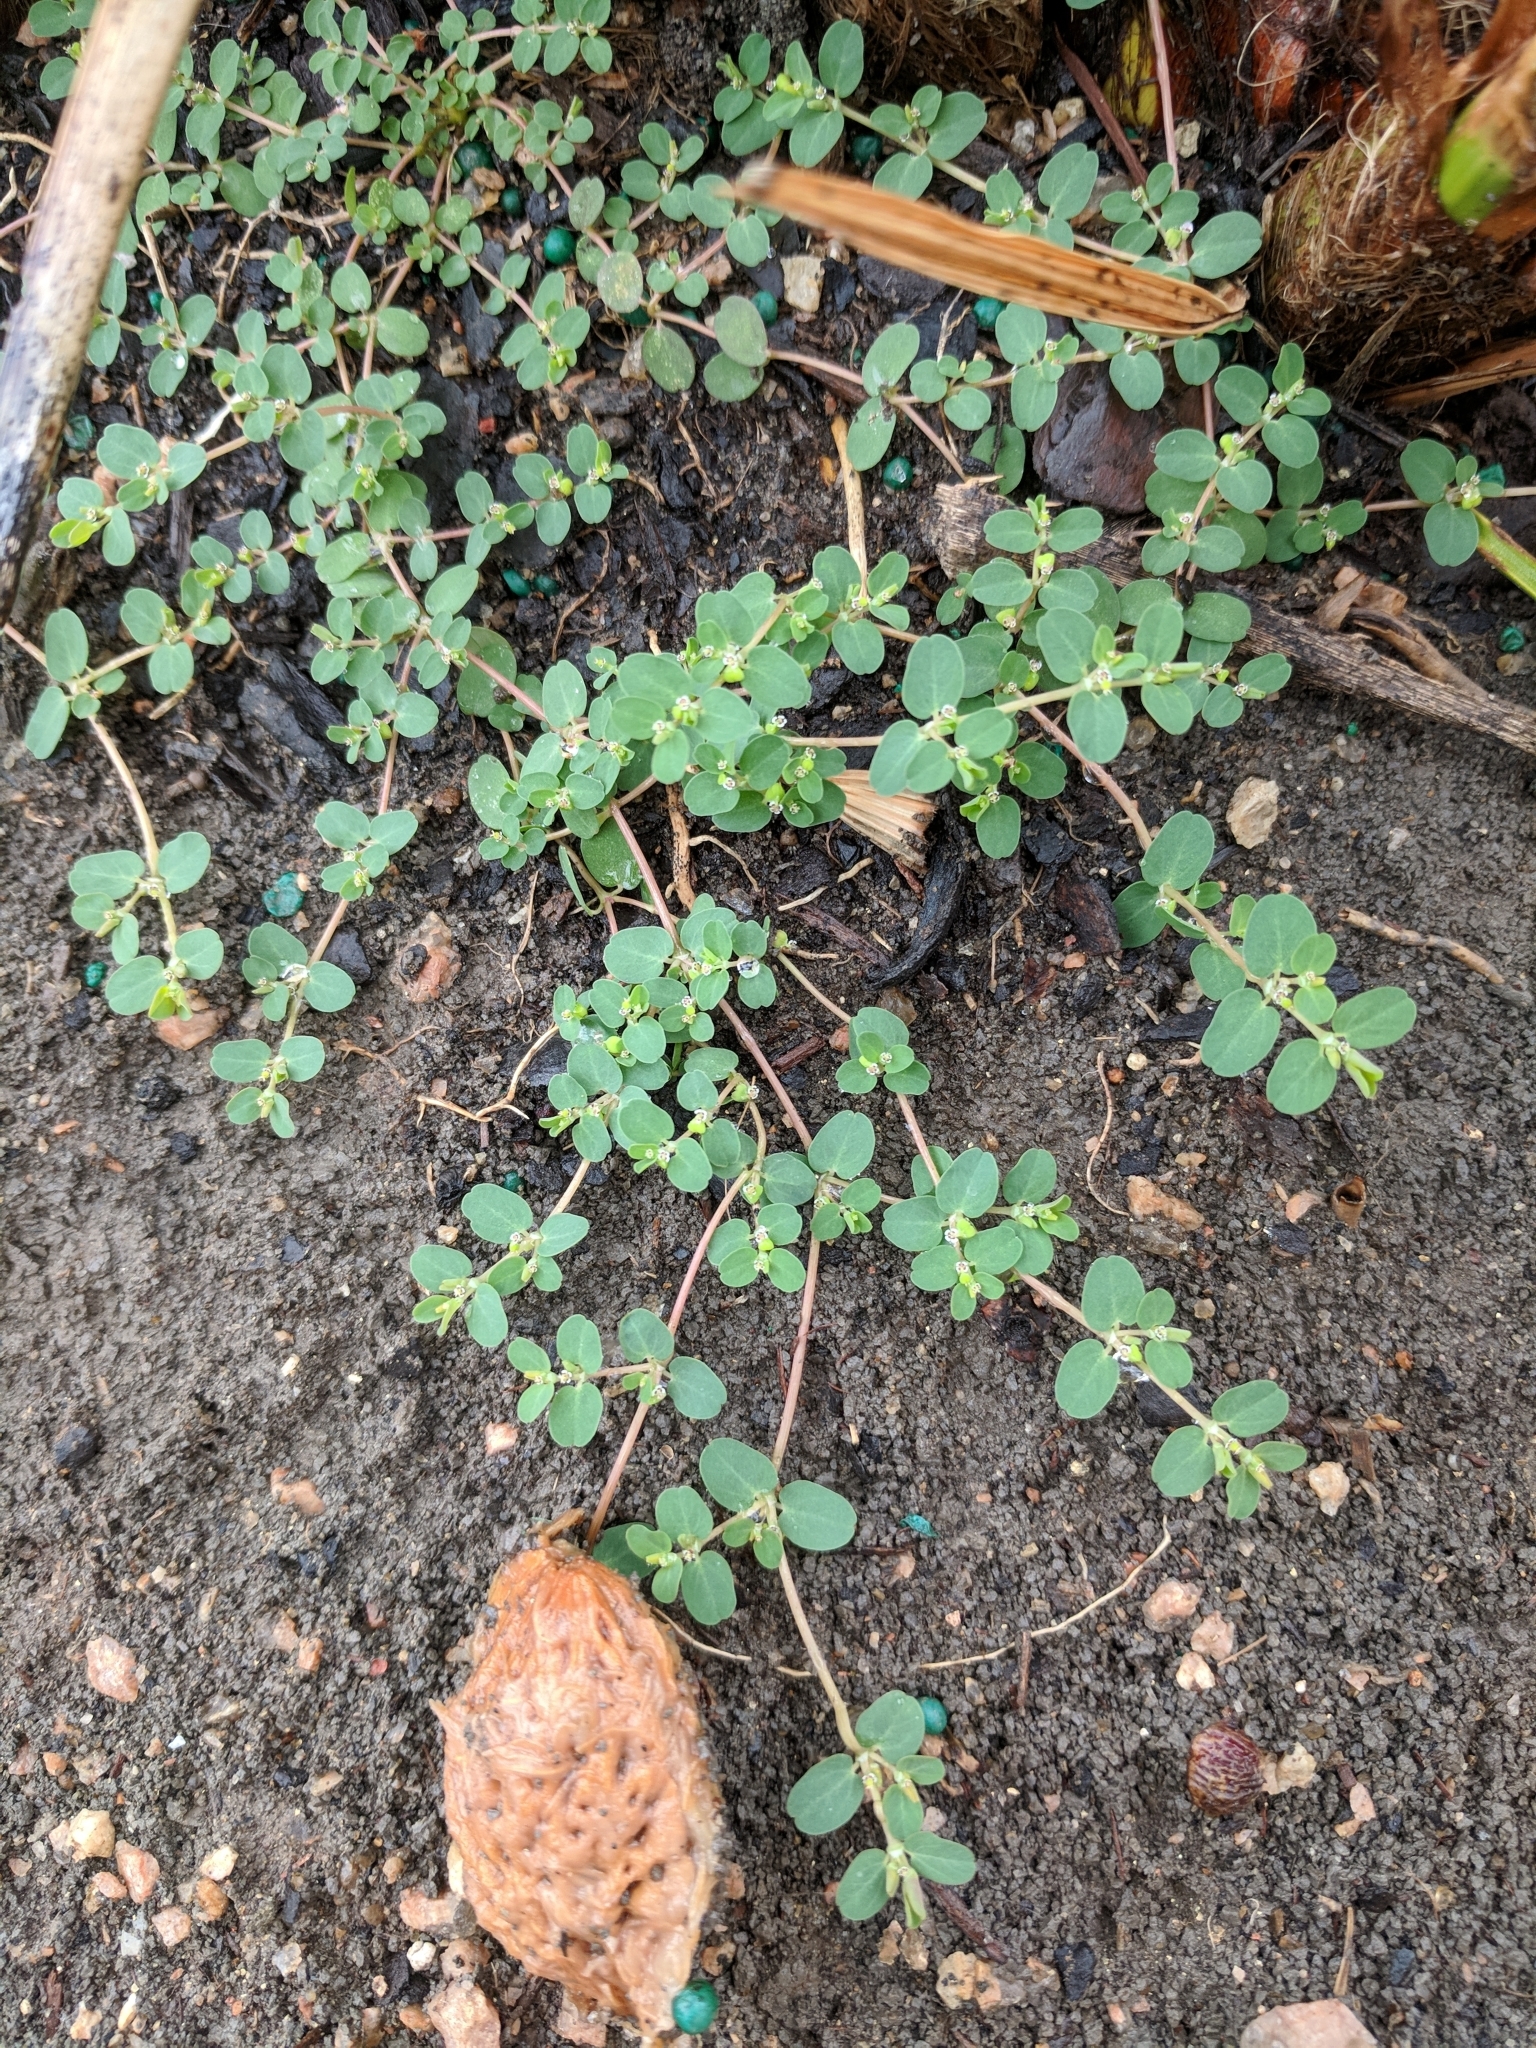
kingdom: Plantae
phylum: Tracheophyta
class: Magnoliopsida
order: Malpighiales
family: Euphorbiaceae
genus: Euphorbia
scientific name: Euphorbia serpens
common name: Matted sandmat
